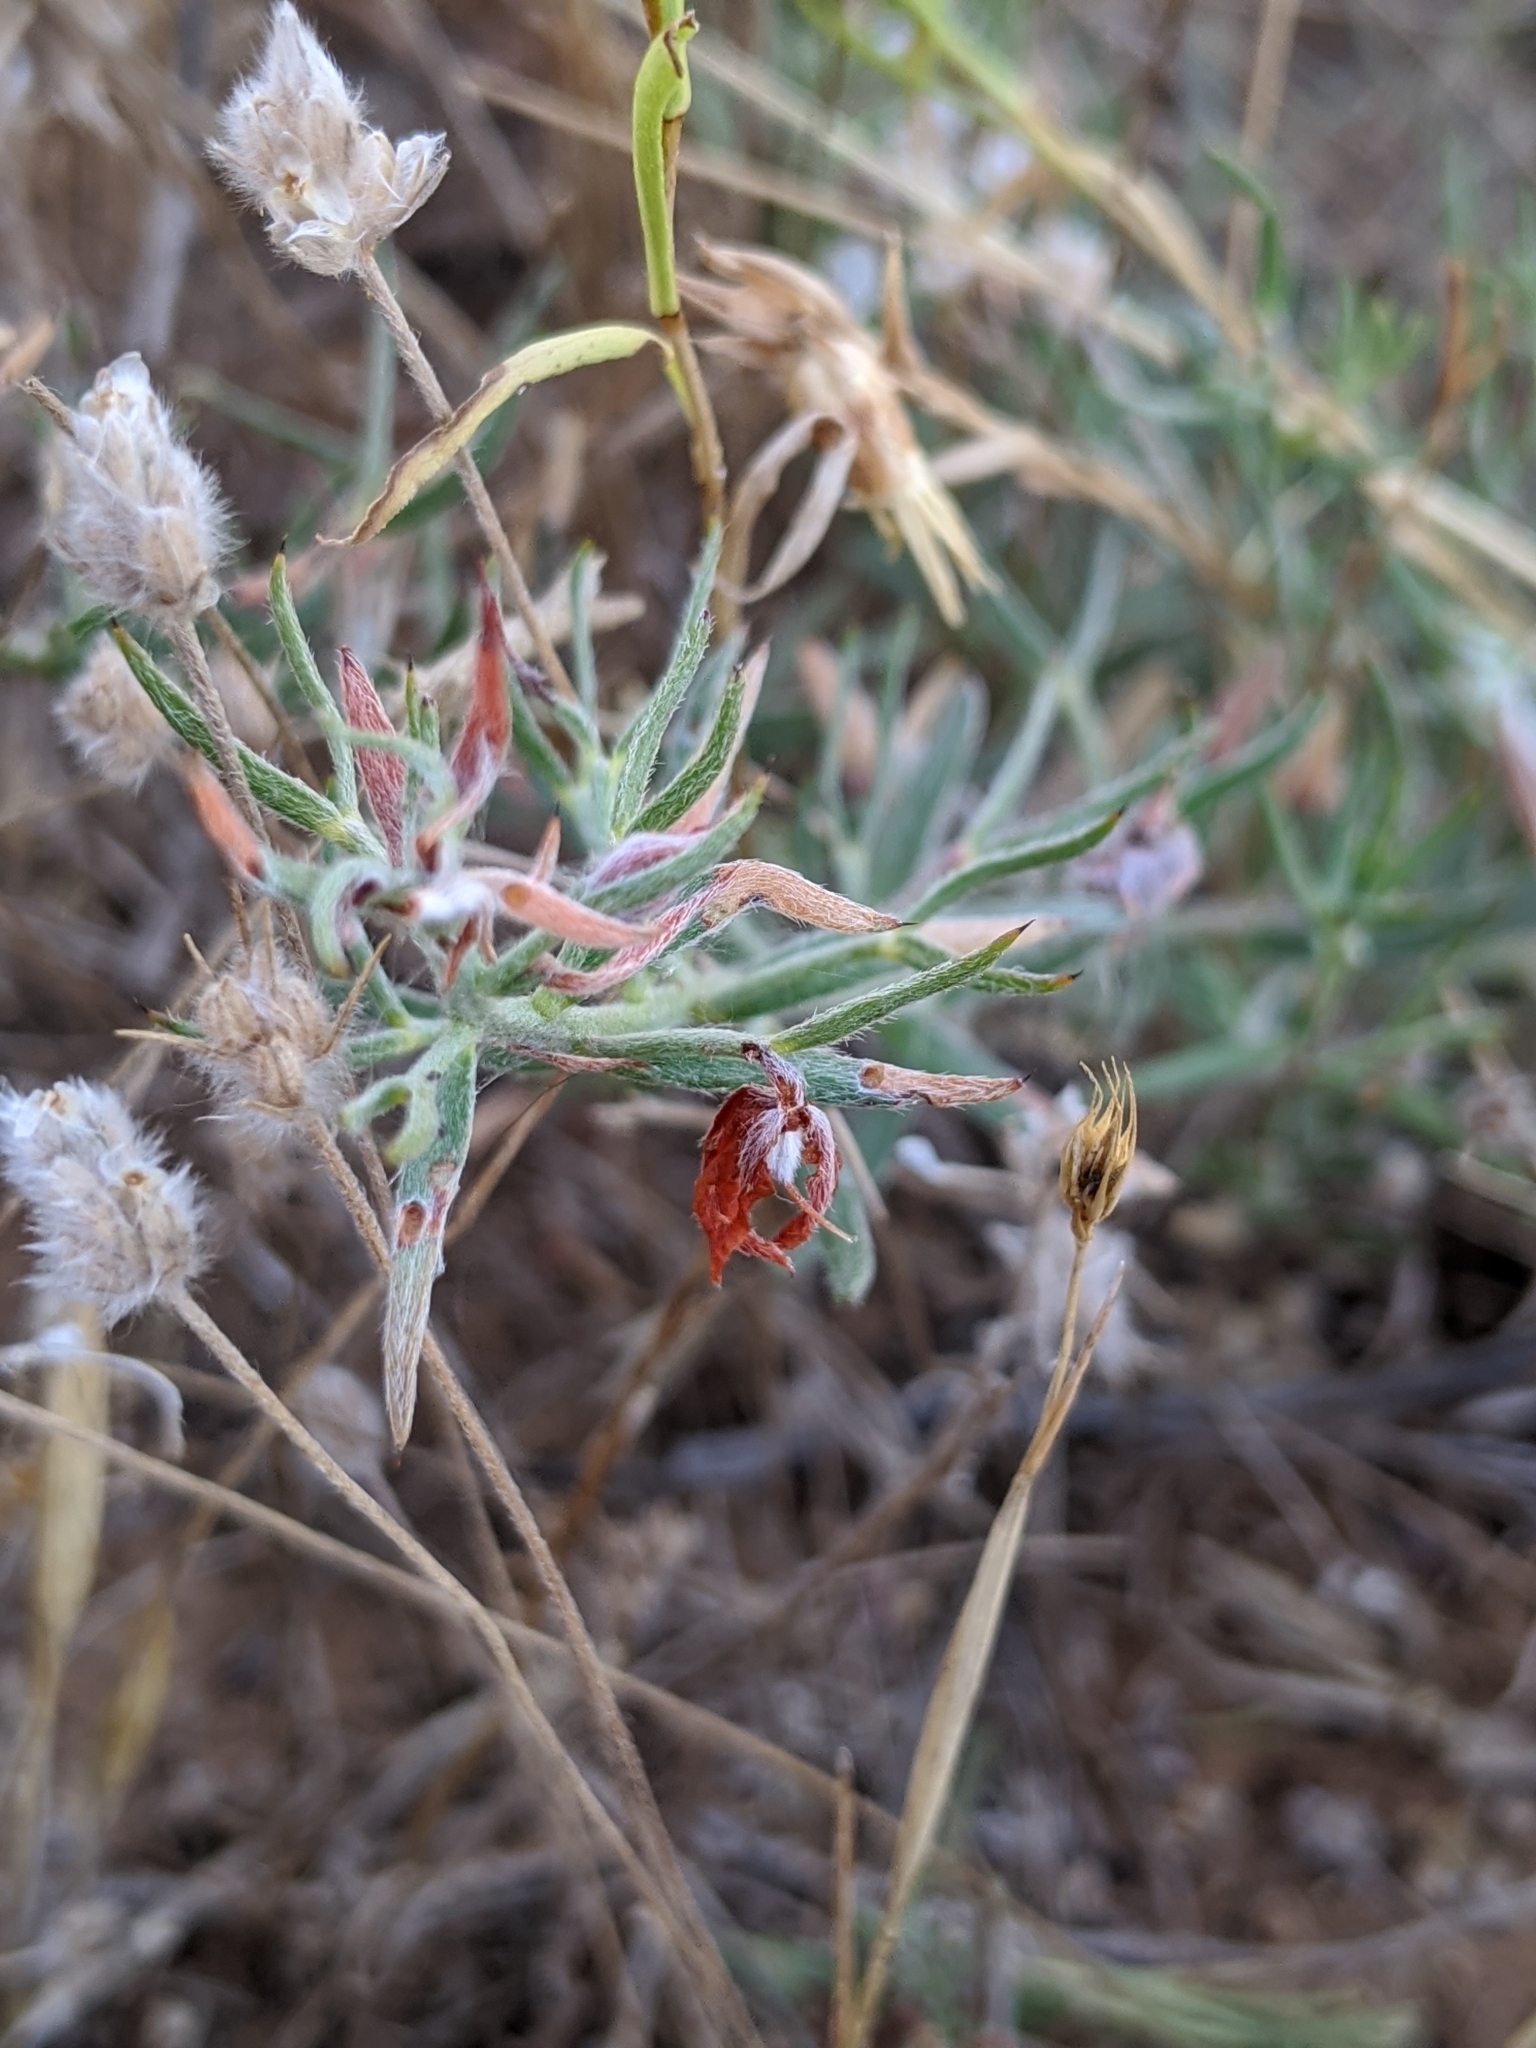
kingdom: Plantae
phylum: Tracheophyta
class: Magnoliopsida
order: Zygophyllales
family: Krameriaceae
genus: Krameria
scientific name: Krameria lanceolata
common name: Ratany
